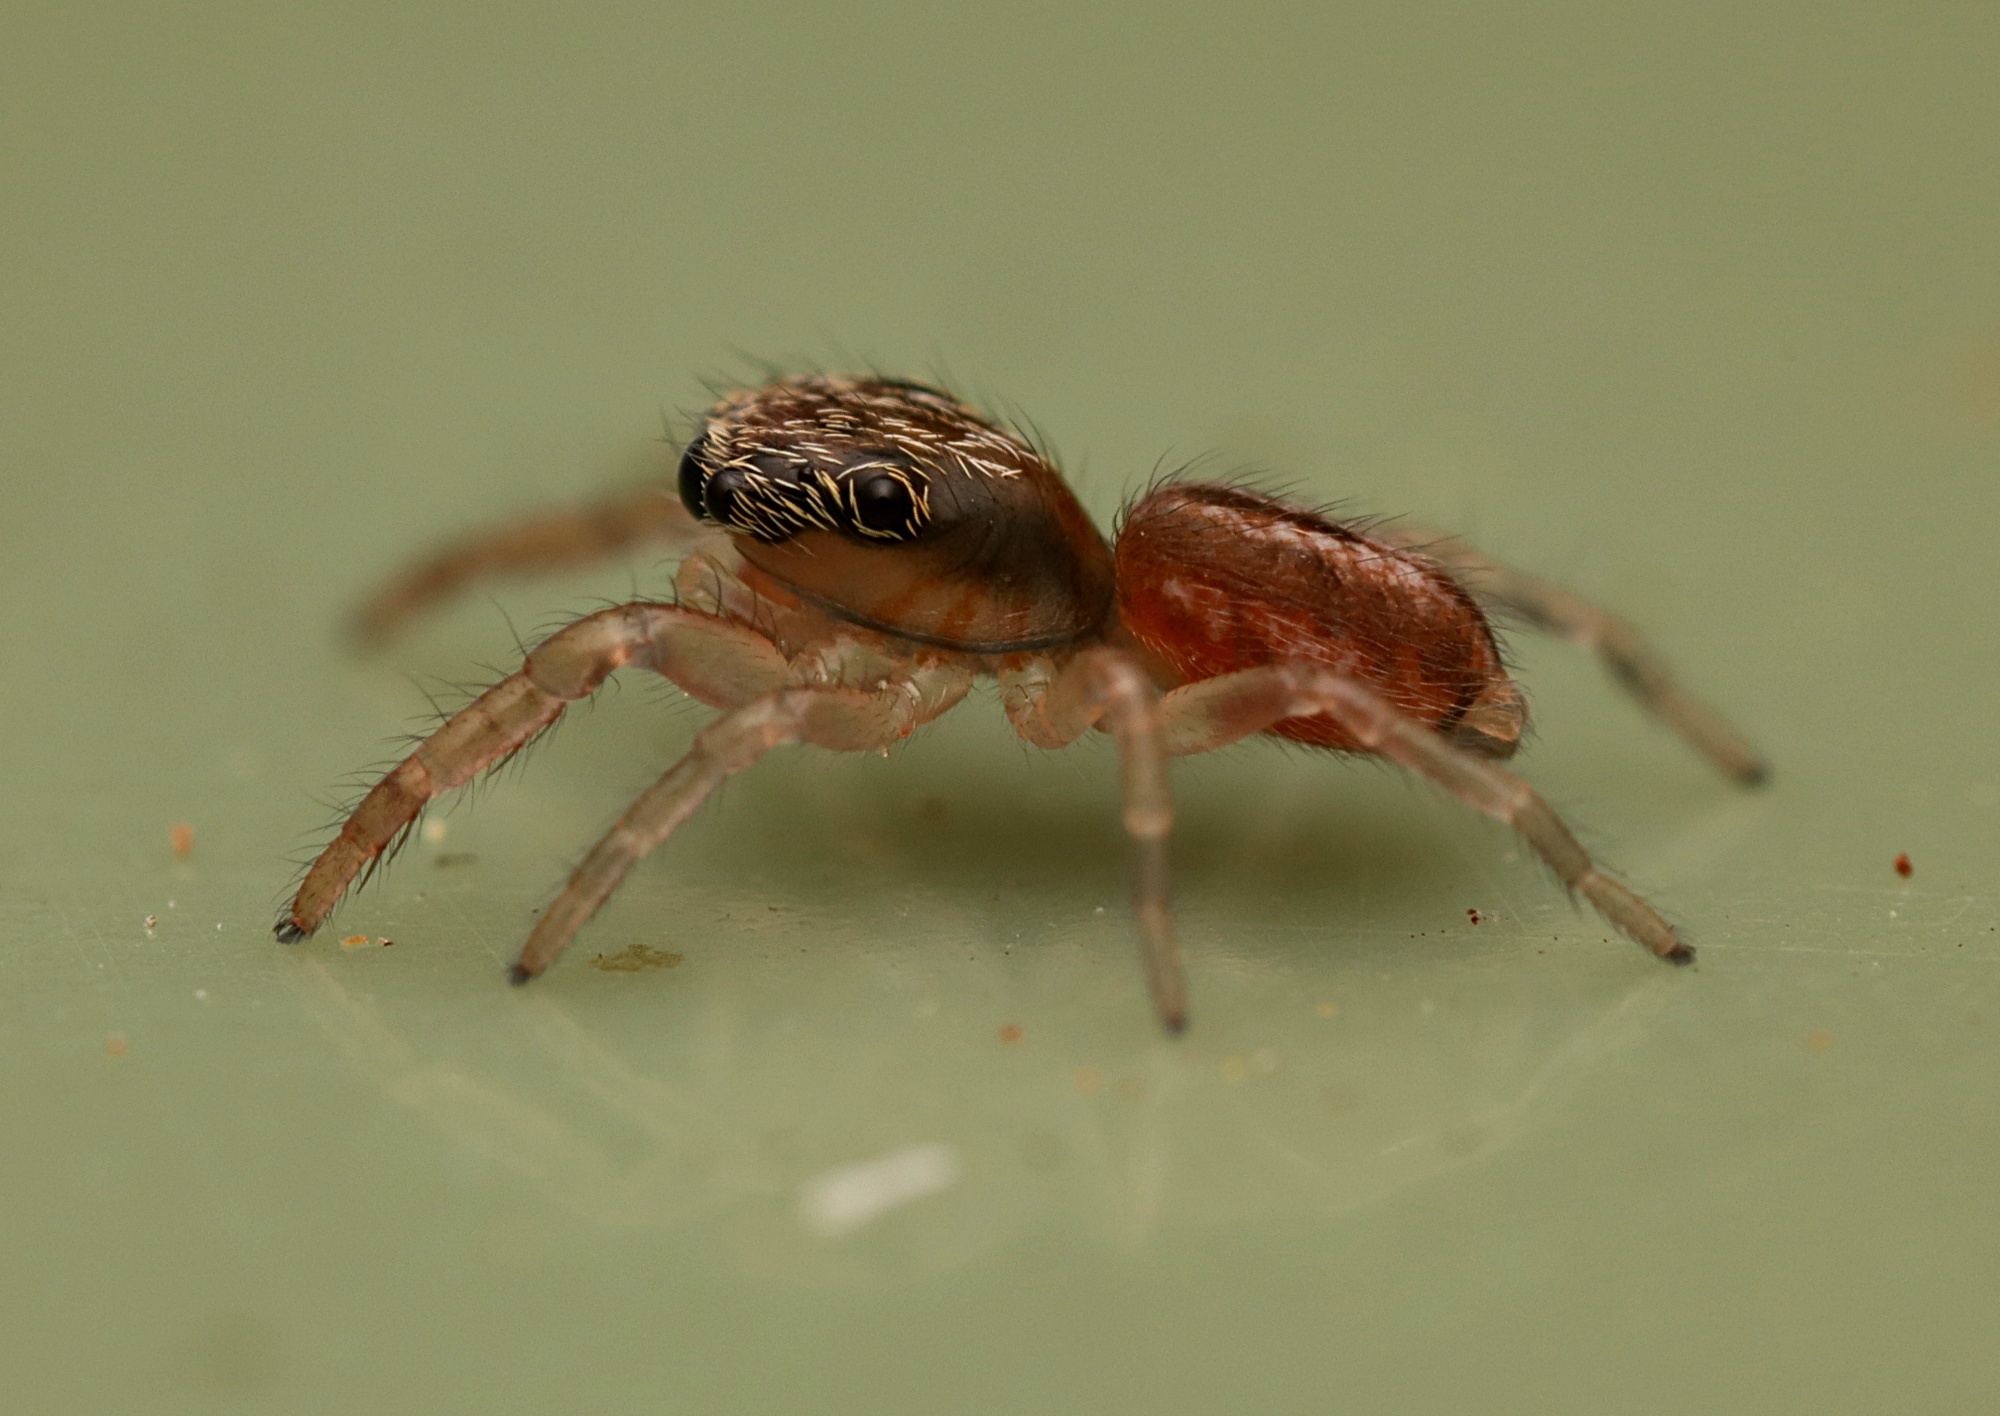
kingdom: Animalia
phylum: Arthropoda
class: Arachnida
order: Araneae
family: Salticidae
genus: Trite
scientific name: Trite planiceps
